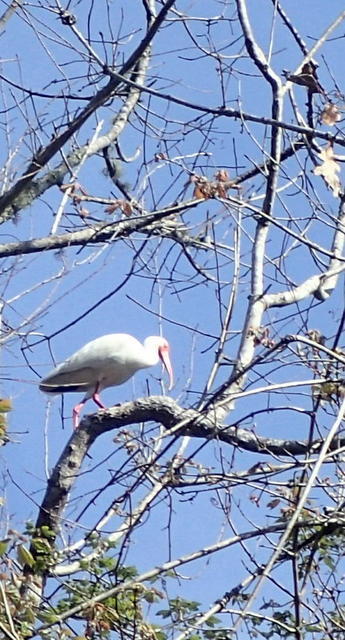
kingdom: Animalia
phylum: Chordata
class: Aves
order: Pelecaniformes
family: Threskiornithidae
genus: Eudocimus
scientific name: Eudocimus albus
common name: White ibis
